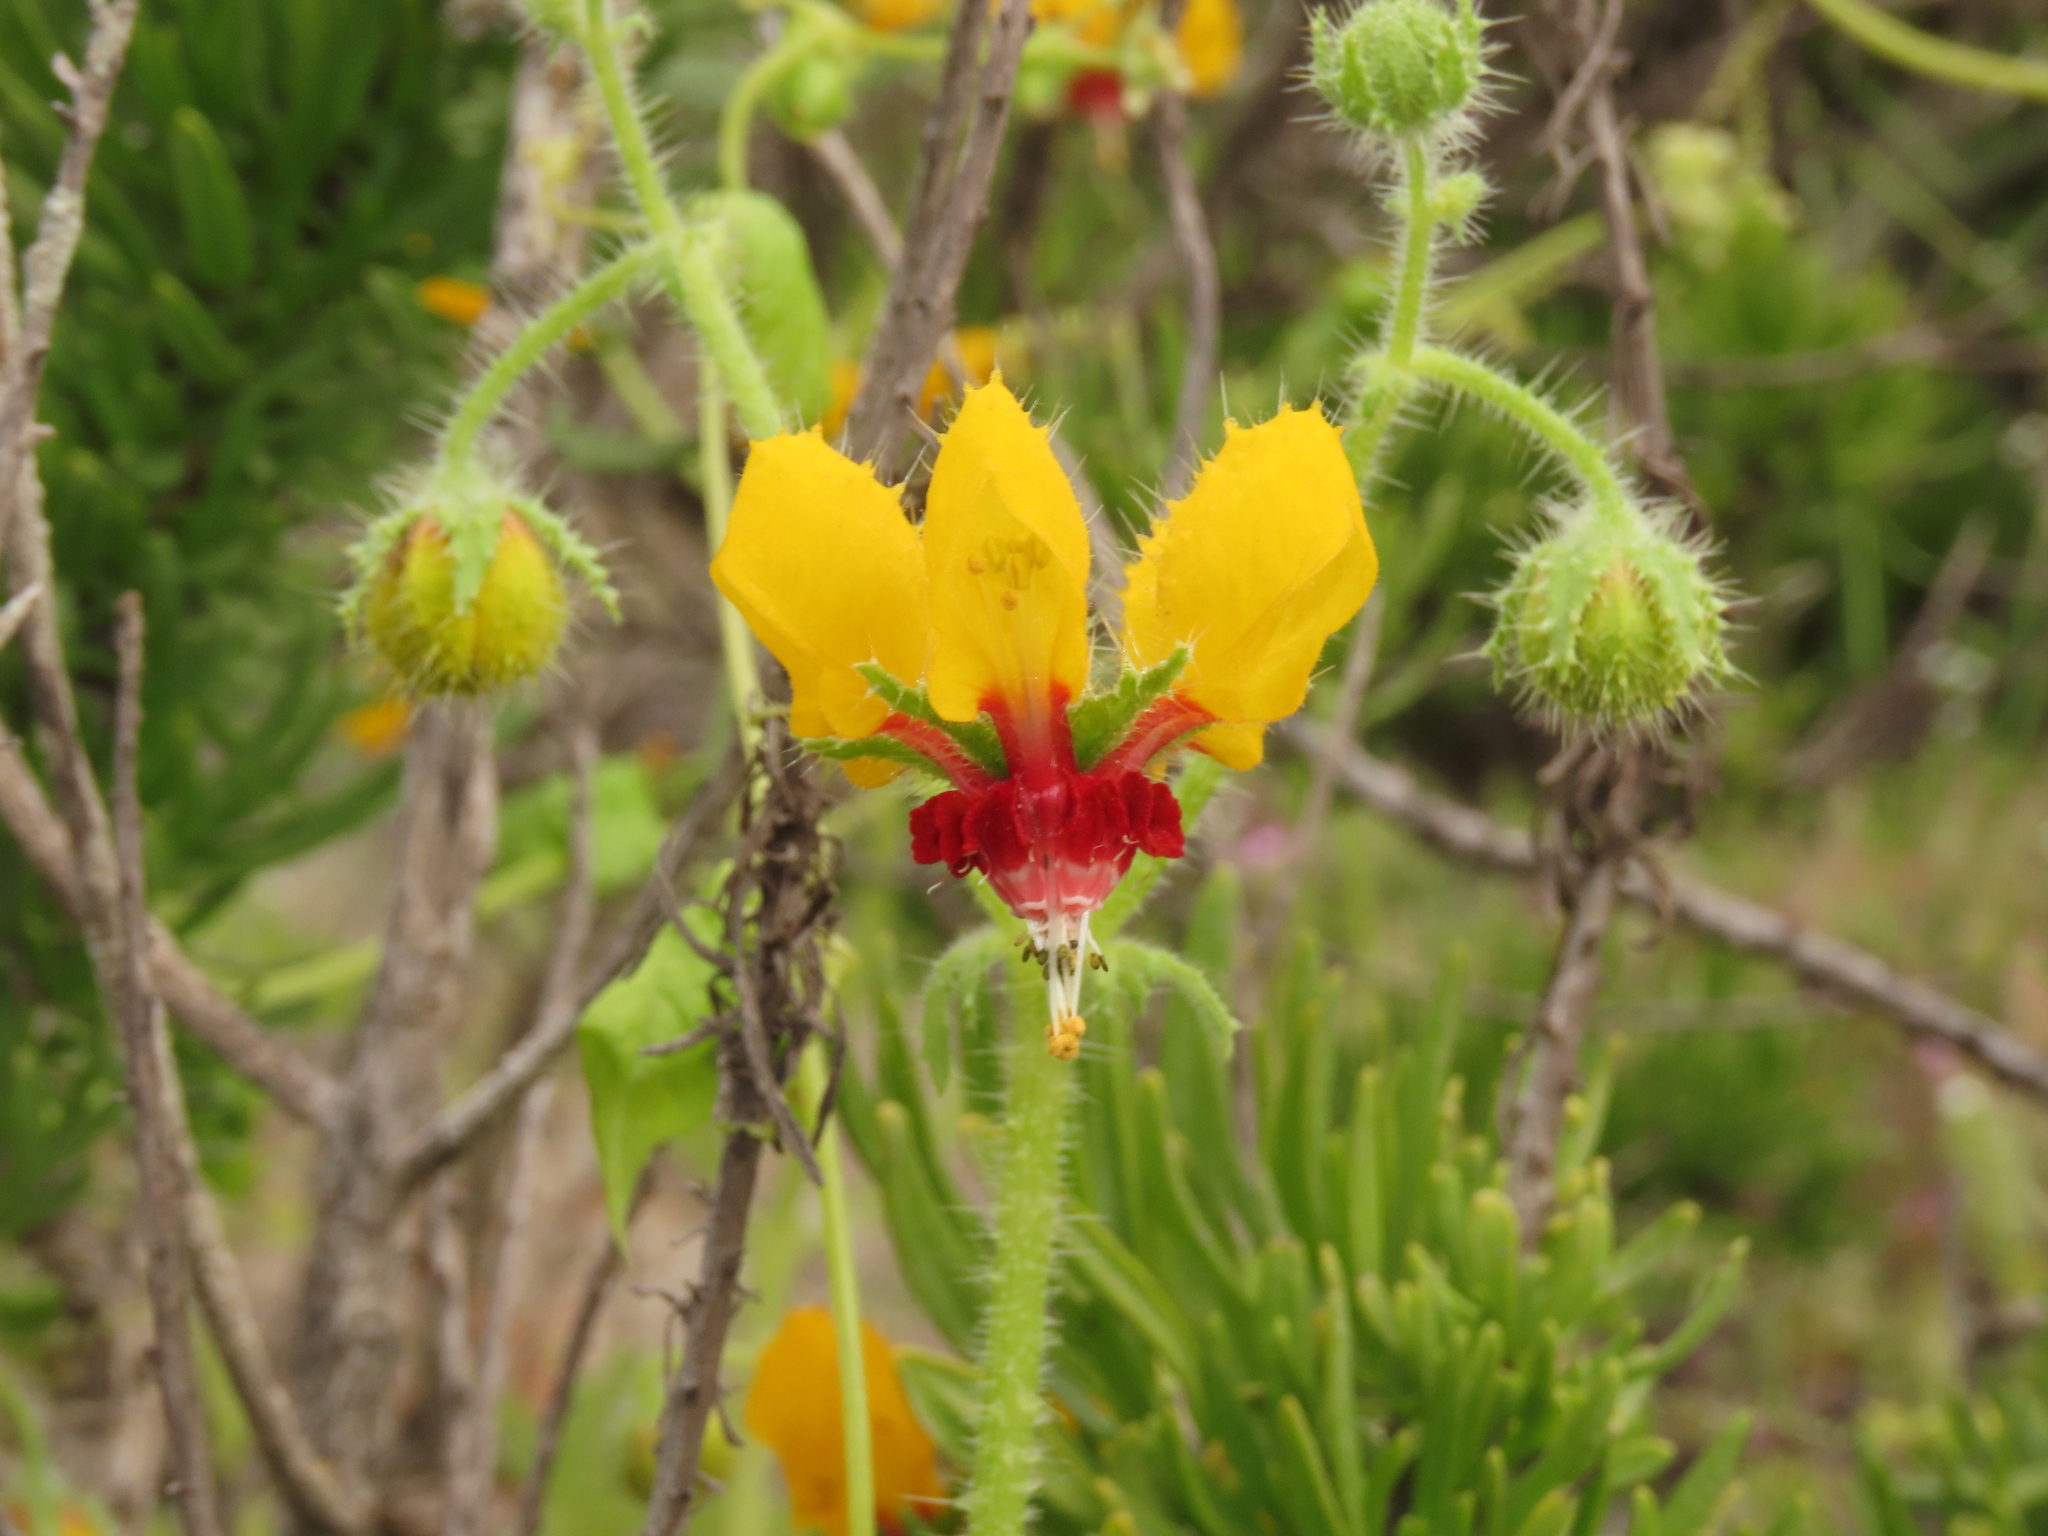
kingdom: Plantae
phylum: Tracheophyta
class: Magnoliopsida
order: Cornales
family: Loasaceae
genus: Loasa
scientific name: Loasa tricolor
